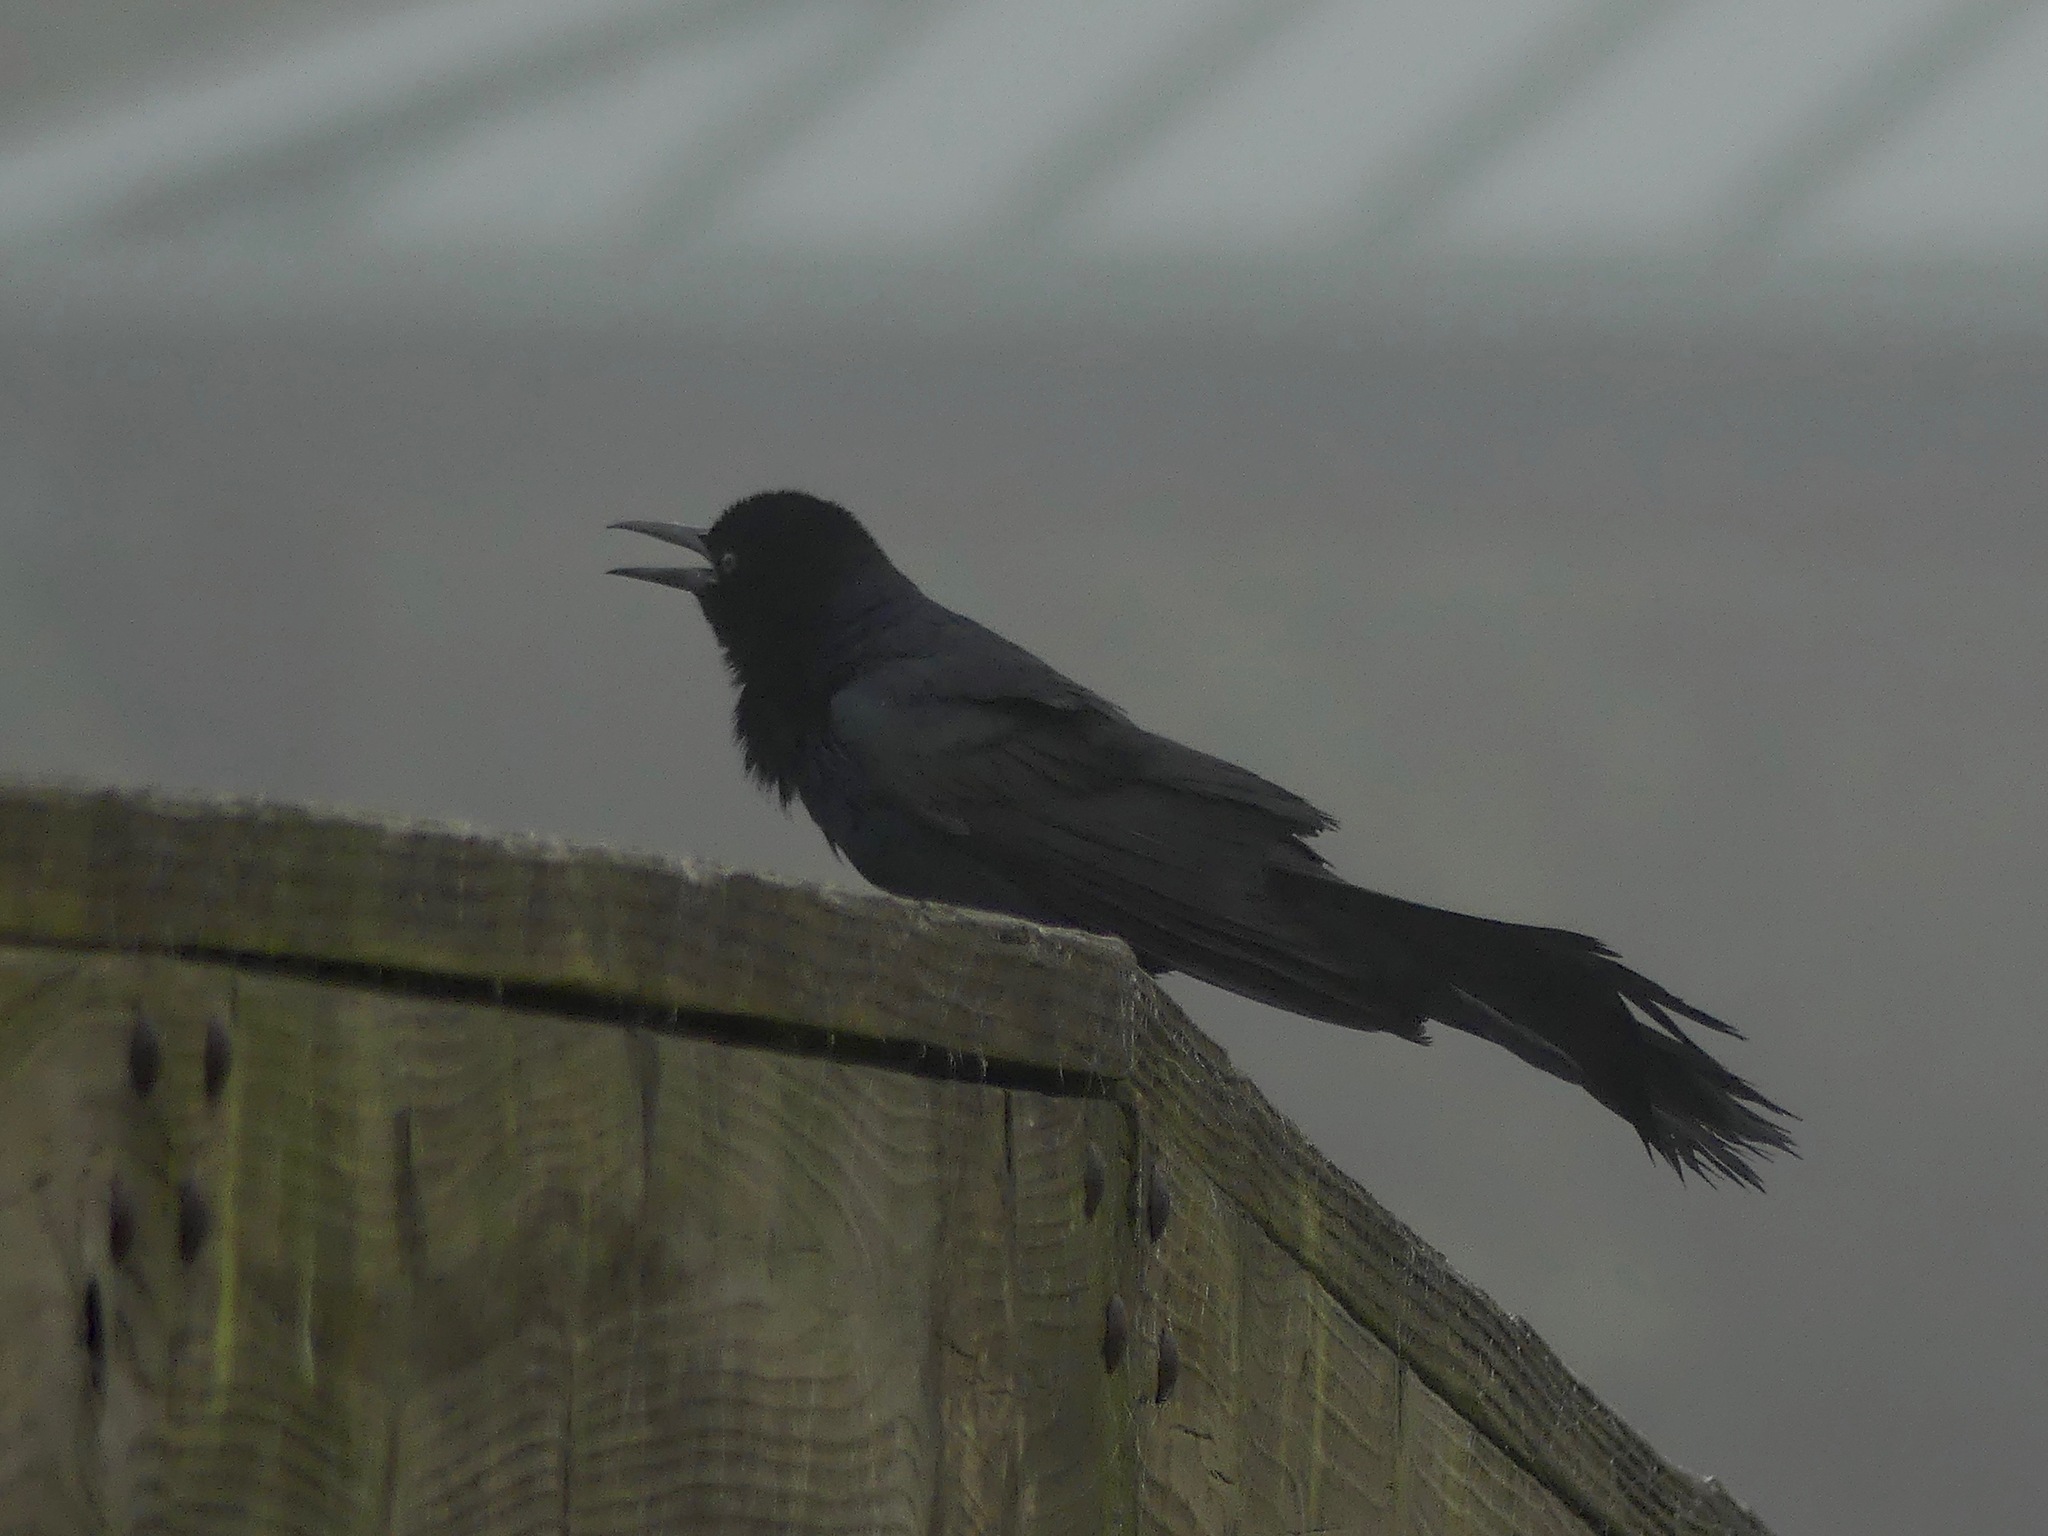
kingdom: Animalia
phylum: Chordata
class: Aves
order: Passeriformes
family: Icteridae
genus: Quiscalus
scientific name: Quiscalus major
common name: Boat-tailed grackle
